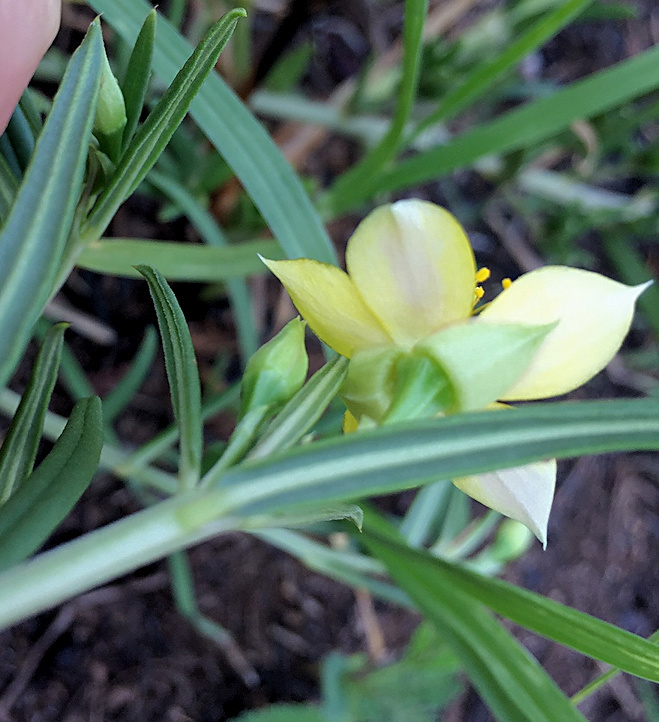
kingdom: Plantae
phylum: Tracheophyta
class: Magnoliopsida
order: Caryophyllales
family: Talinaceae
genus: Talinum
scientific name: Talinum caffrum
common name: Flameflower
